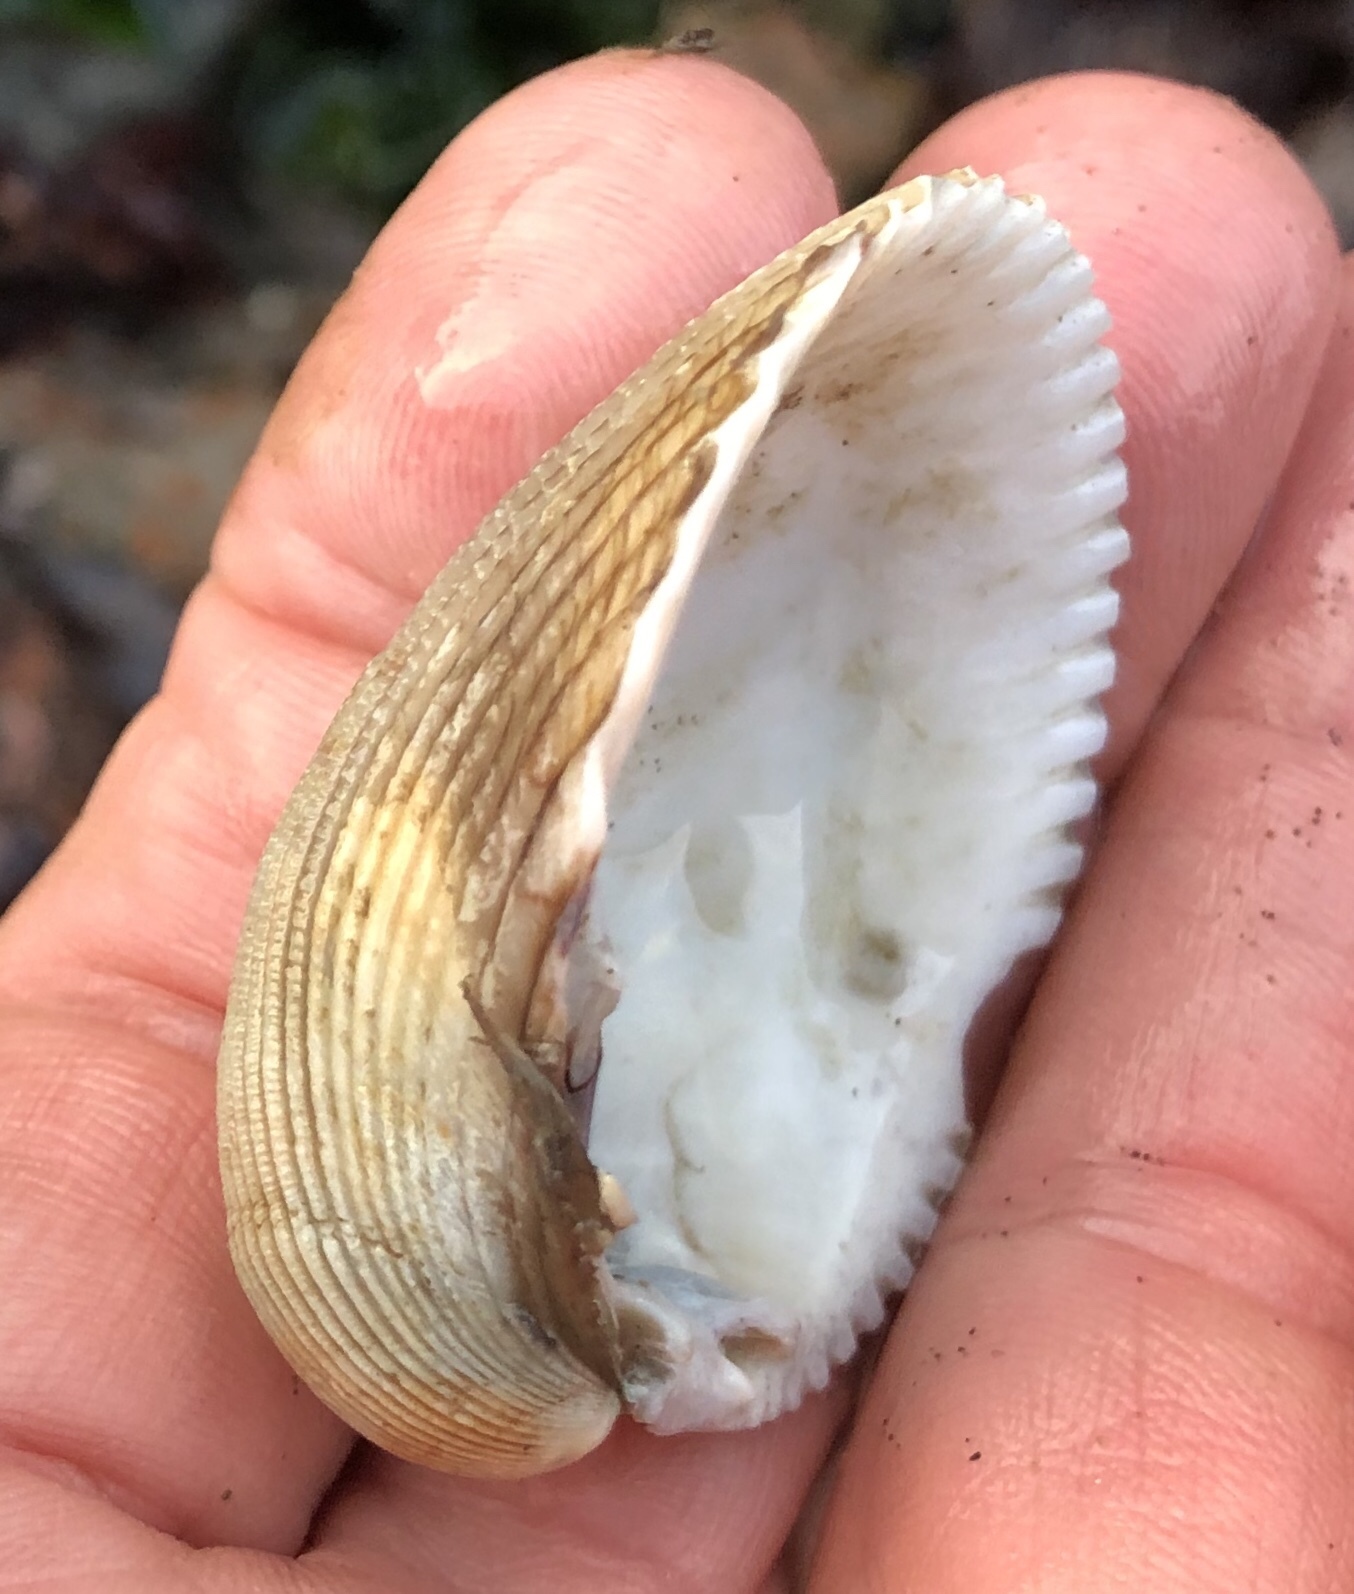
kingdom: Animalia
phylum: Mollusca
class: Bivalvia
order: Cardiida
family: Cardiidae
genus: Clinocardium
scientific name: Clinocardium nuttallii
